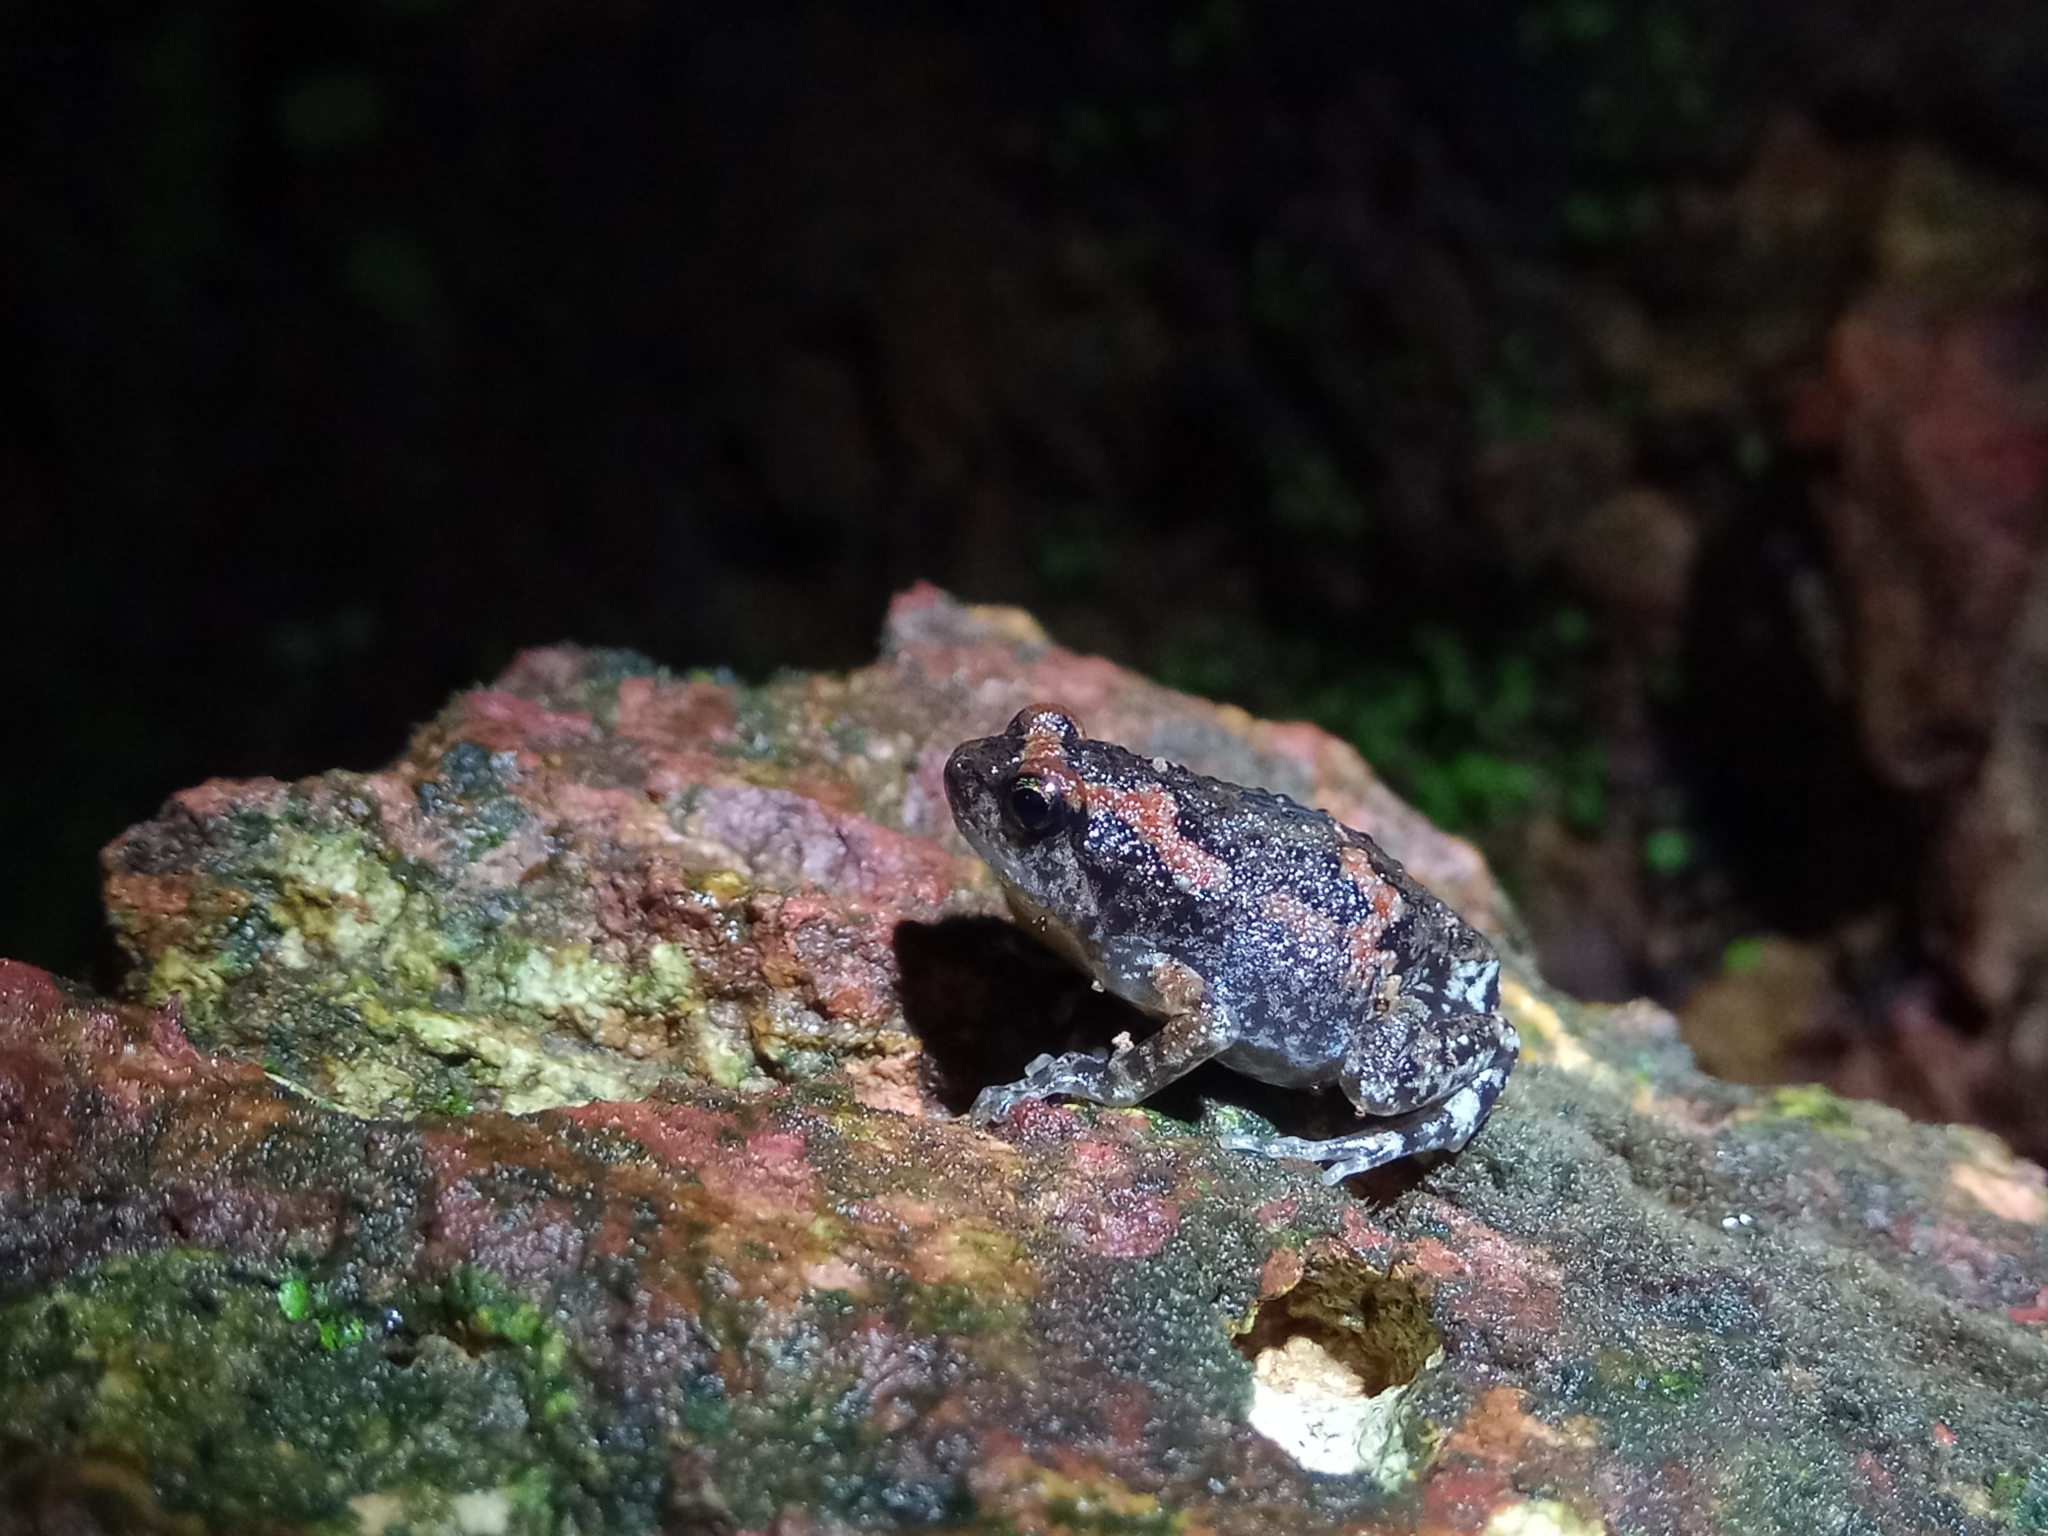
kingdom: Animalia
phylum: Chordata
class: Amphibia
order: Anura
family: Microhylidae
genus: Uperodon
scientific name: Uperodon taprobanicus
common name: Ceylon kaloula
